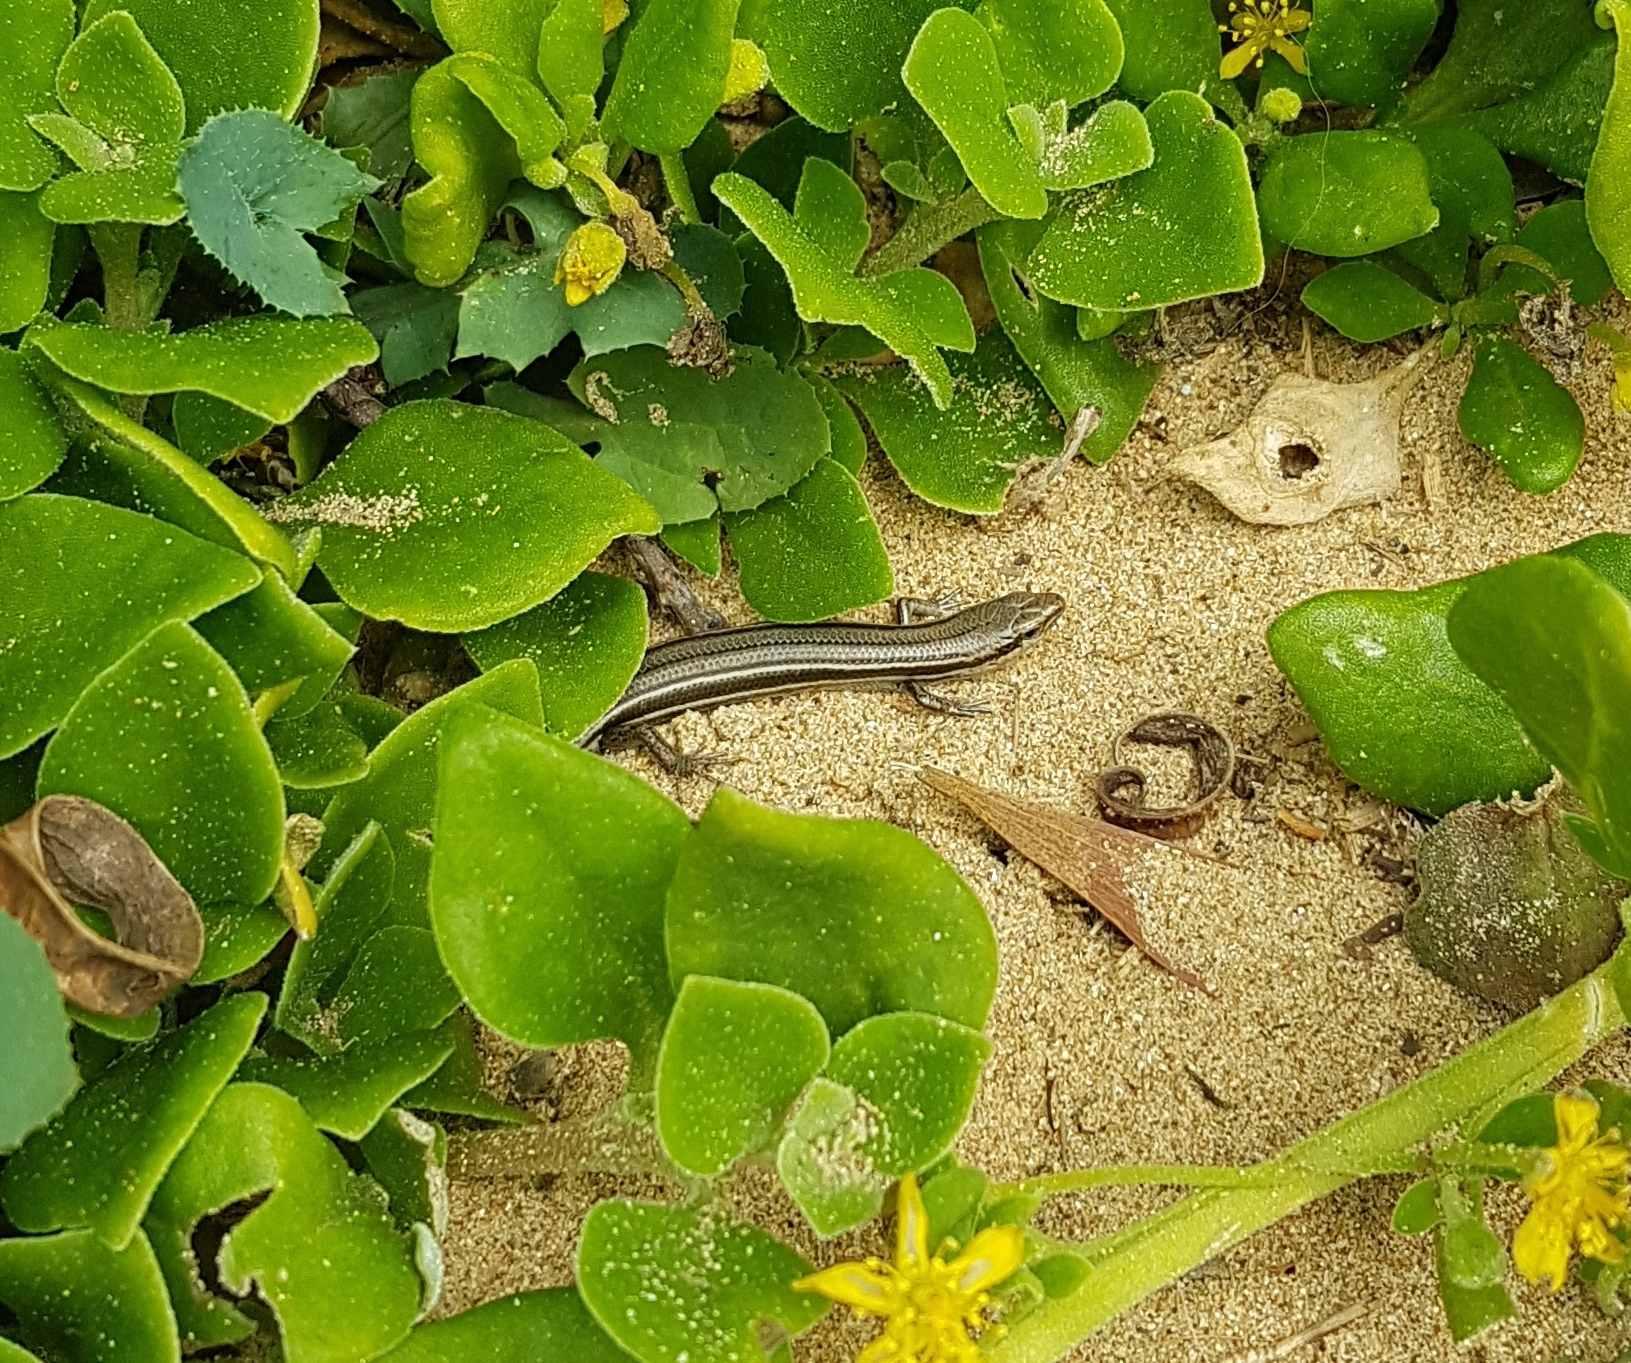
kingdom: Animalia
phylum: Chordata
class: Squamata
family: Scincidae
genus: Acritoscincus
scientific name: Acritoscincus duperreyi
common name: Bold-striped cool-skink
